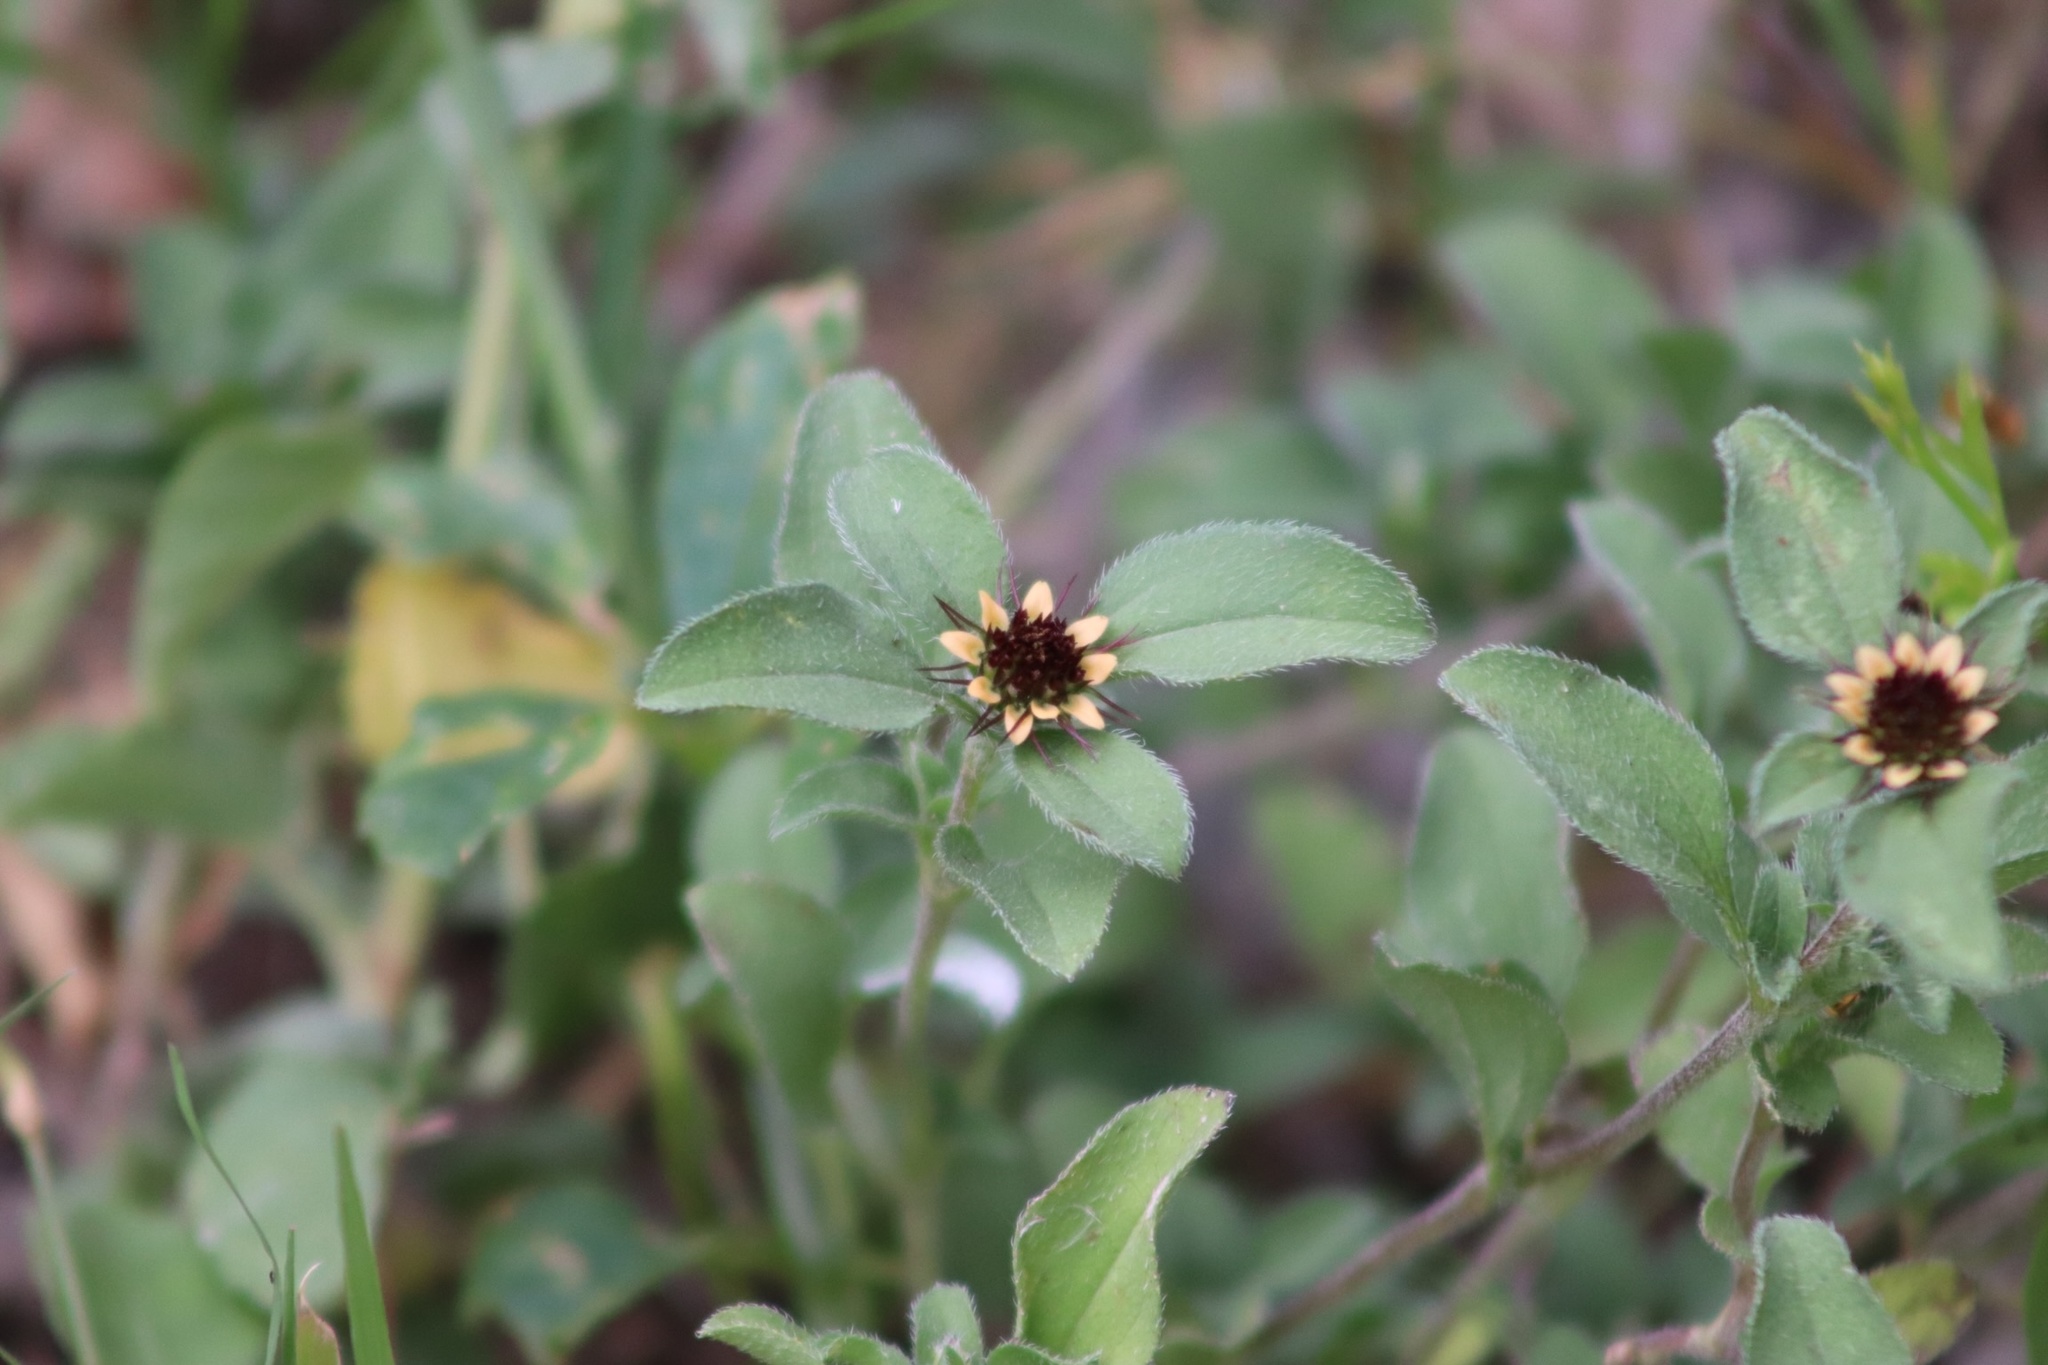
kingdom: Plantae
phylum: Tracheophyta
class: Magnoliopsida
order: Asterales
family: Asteraceae
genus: Sanvitalia
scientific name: Sanvitalia ocymoides
